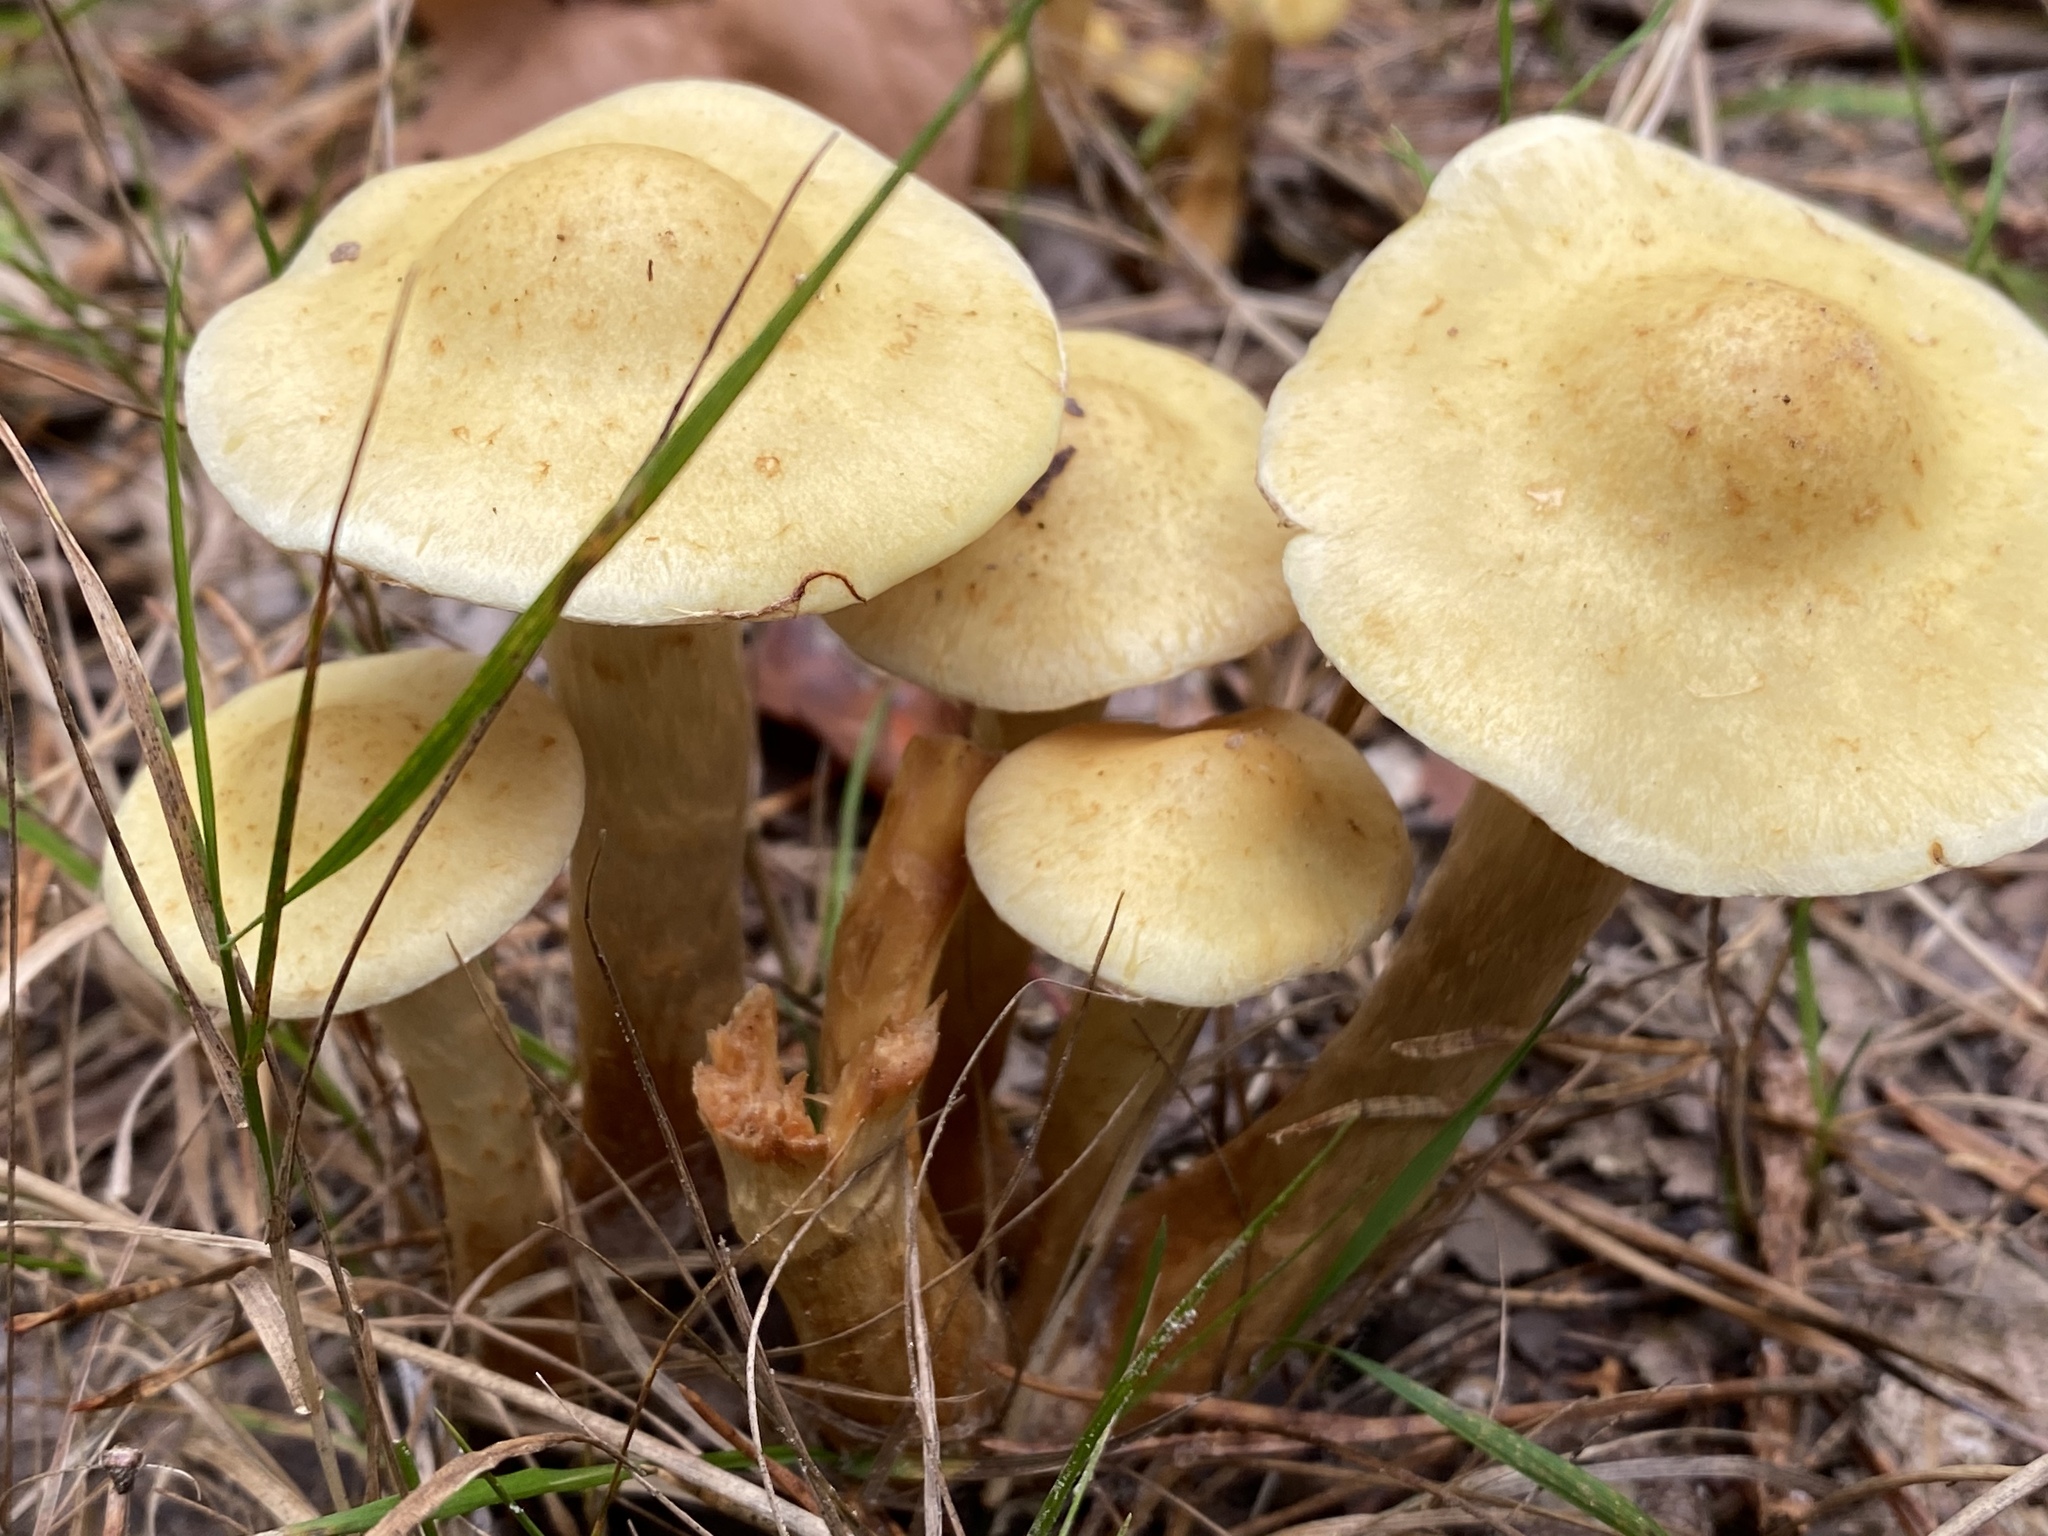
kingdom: Fungi
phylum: Basidiomycota
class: Agaricomycetes
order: Agaricales
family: Tricholomataceae
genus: Tricholoma
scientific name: Tricholoma sulphureum
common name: Stinky knight
